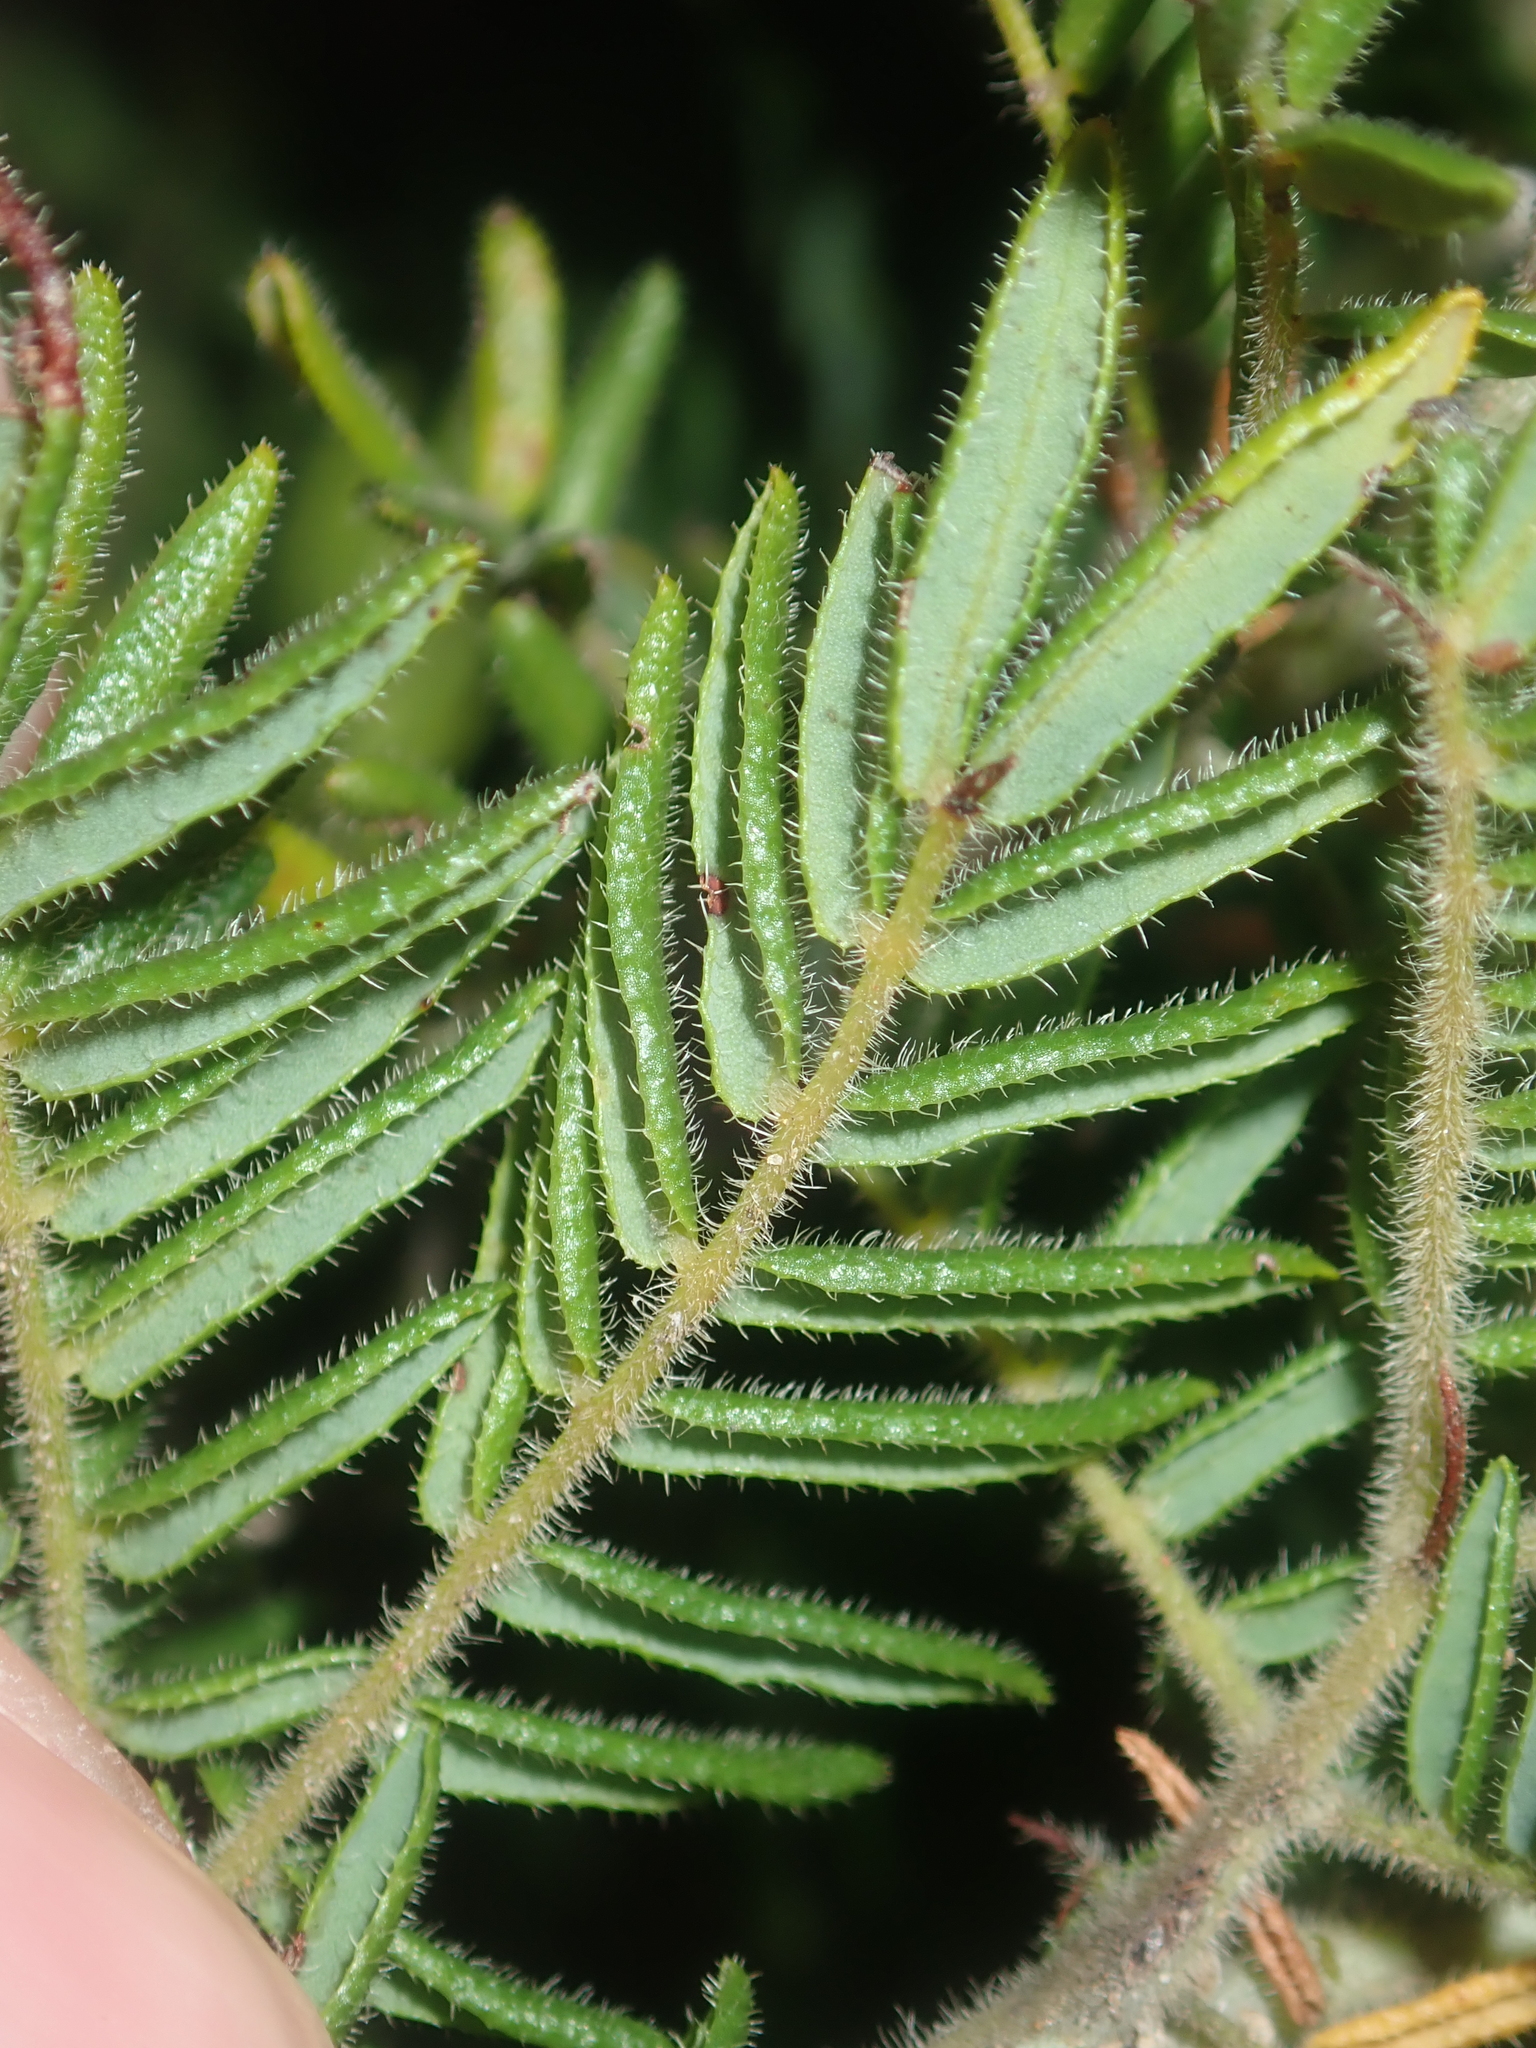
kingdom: Plantae
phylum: Tracheophyta
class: Magnoliopsida
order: Fabales
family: Fabaceae
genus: Acacia
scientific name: Acacia lasiocarpa
